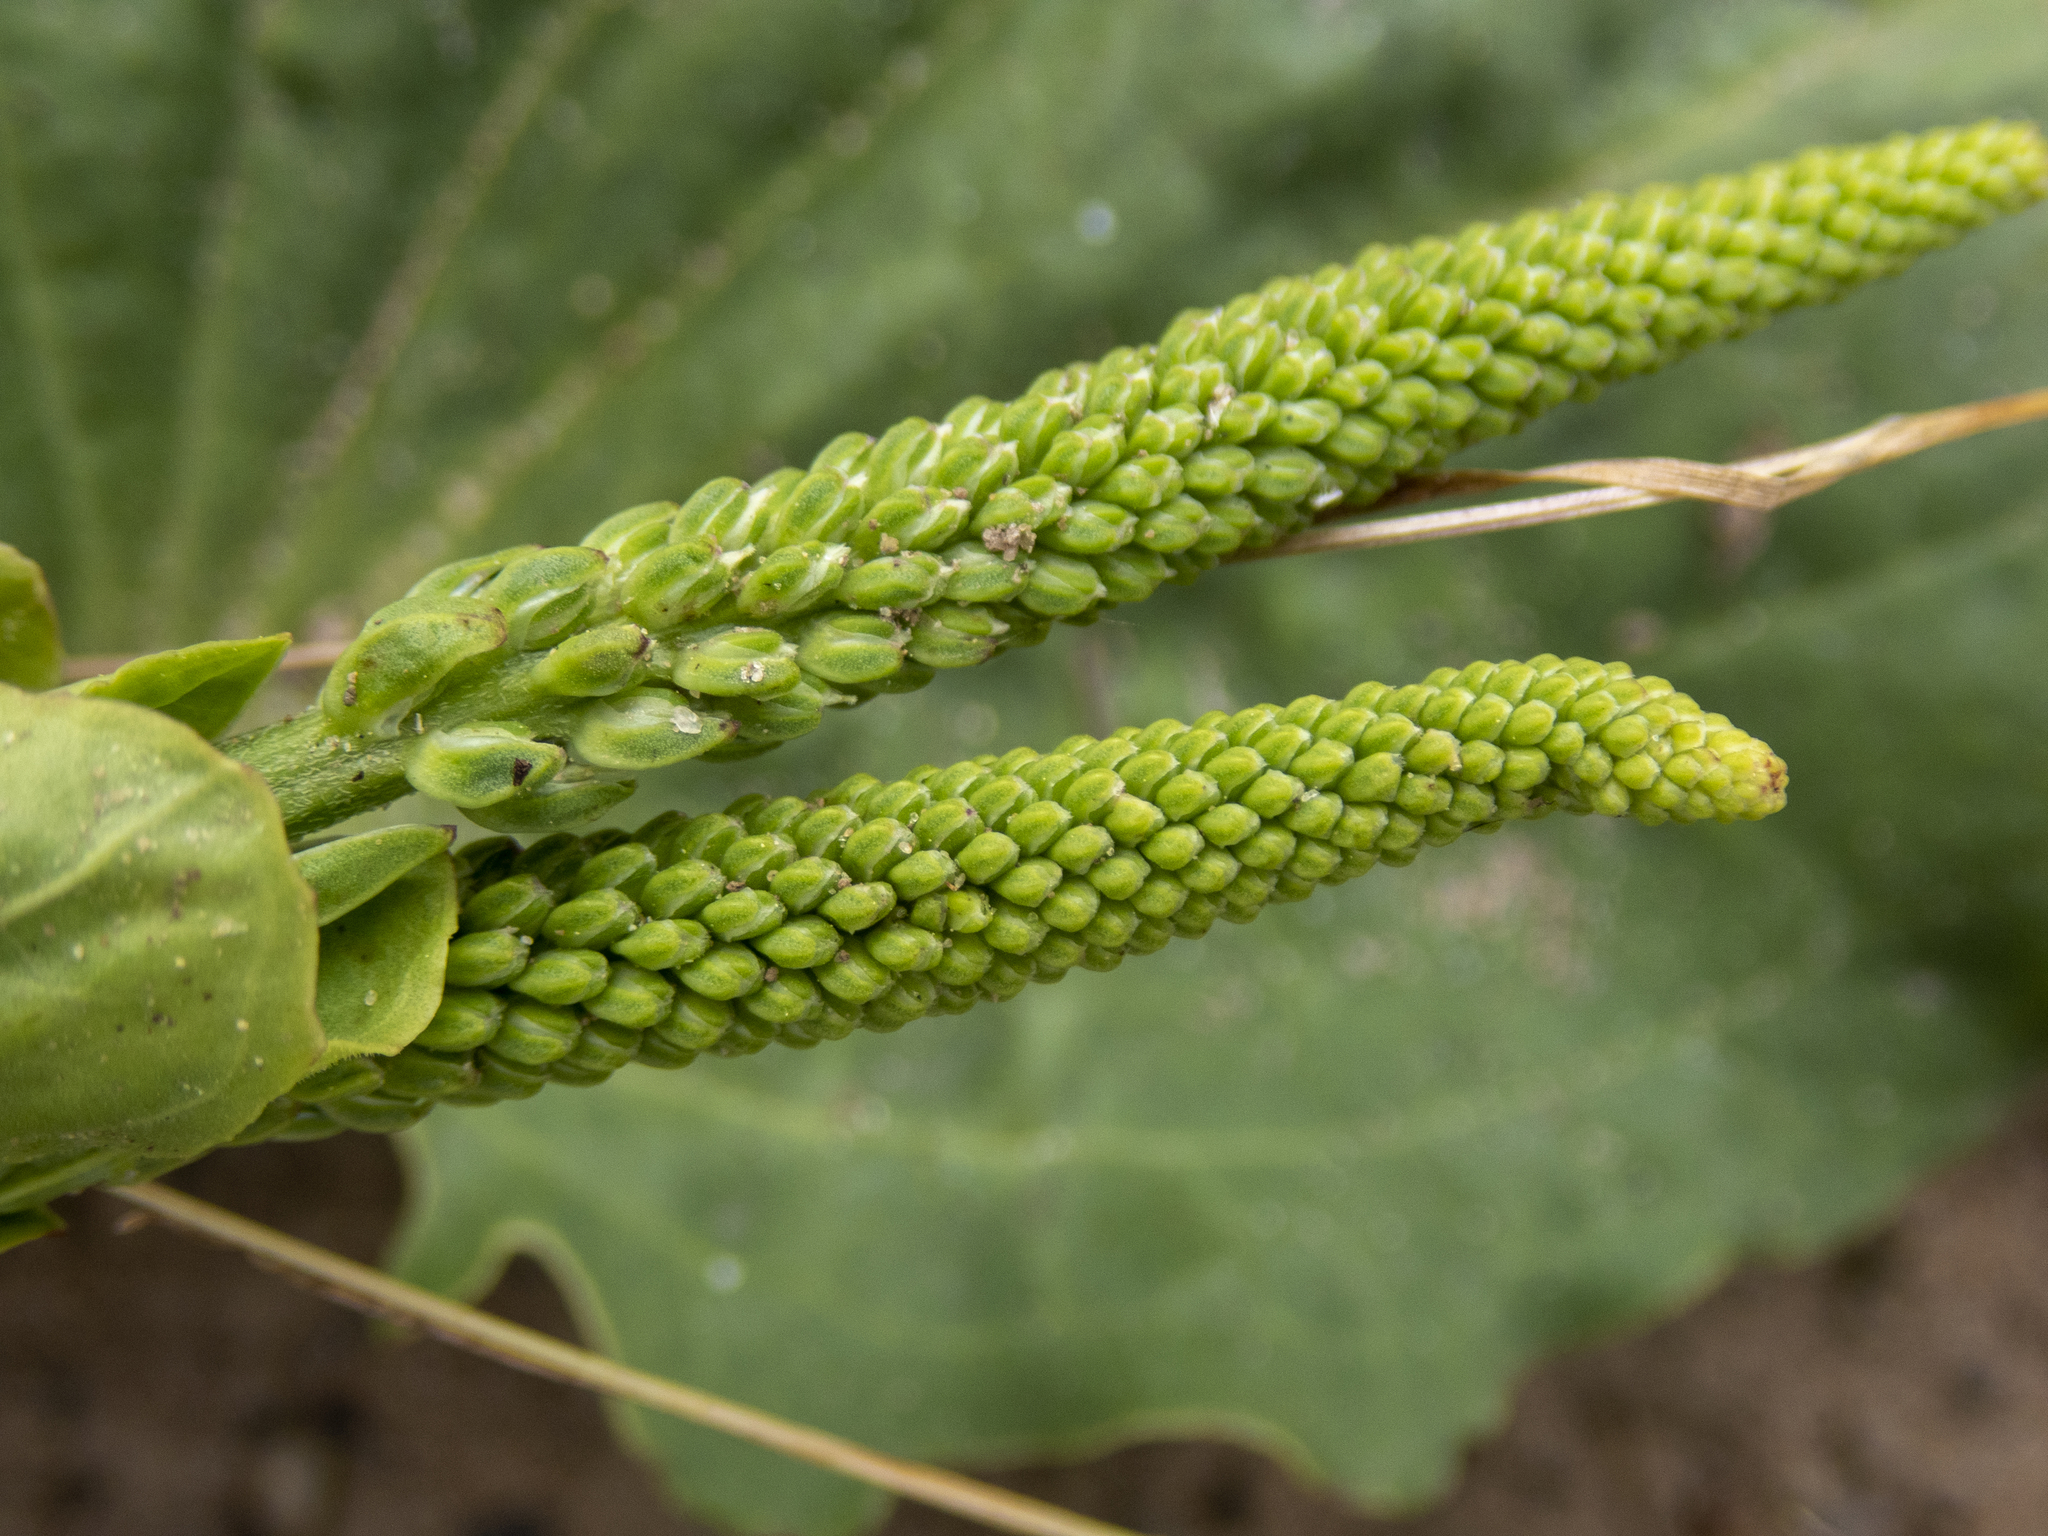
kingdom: Plantae
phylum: Tracheophyta
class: Magnoliopsida
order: Lamiales
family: Plantaginaceae
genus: Plantago
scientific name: Plantago major
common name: Common plantain
